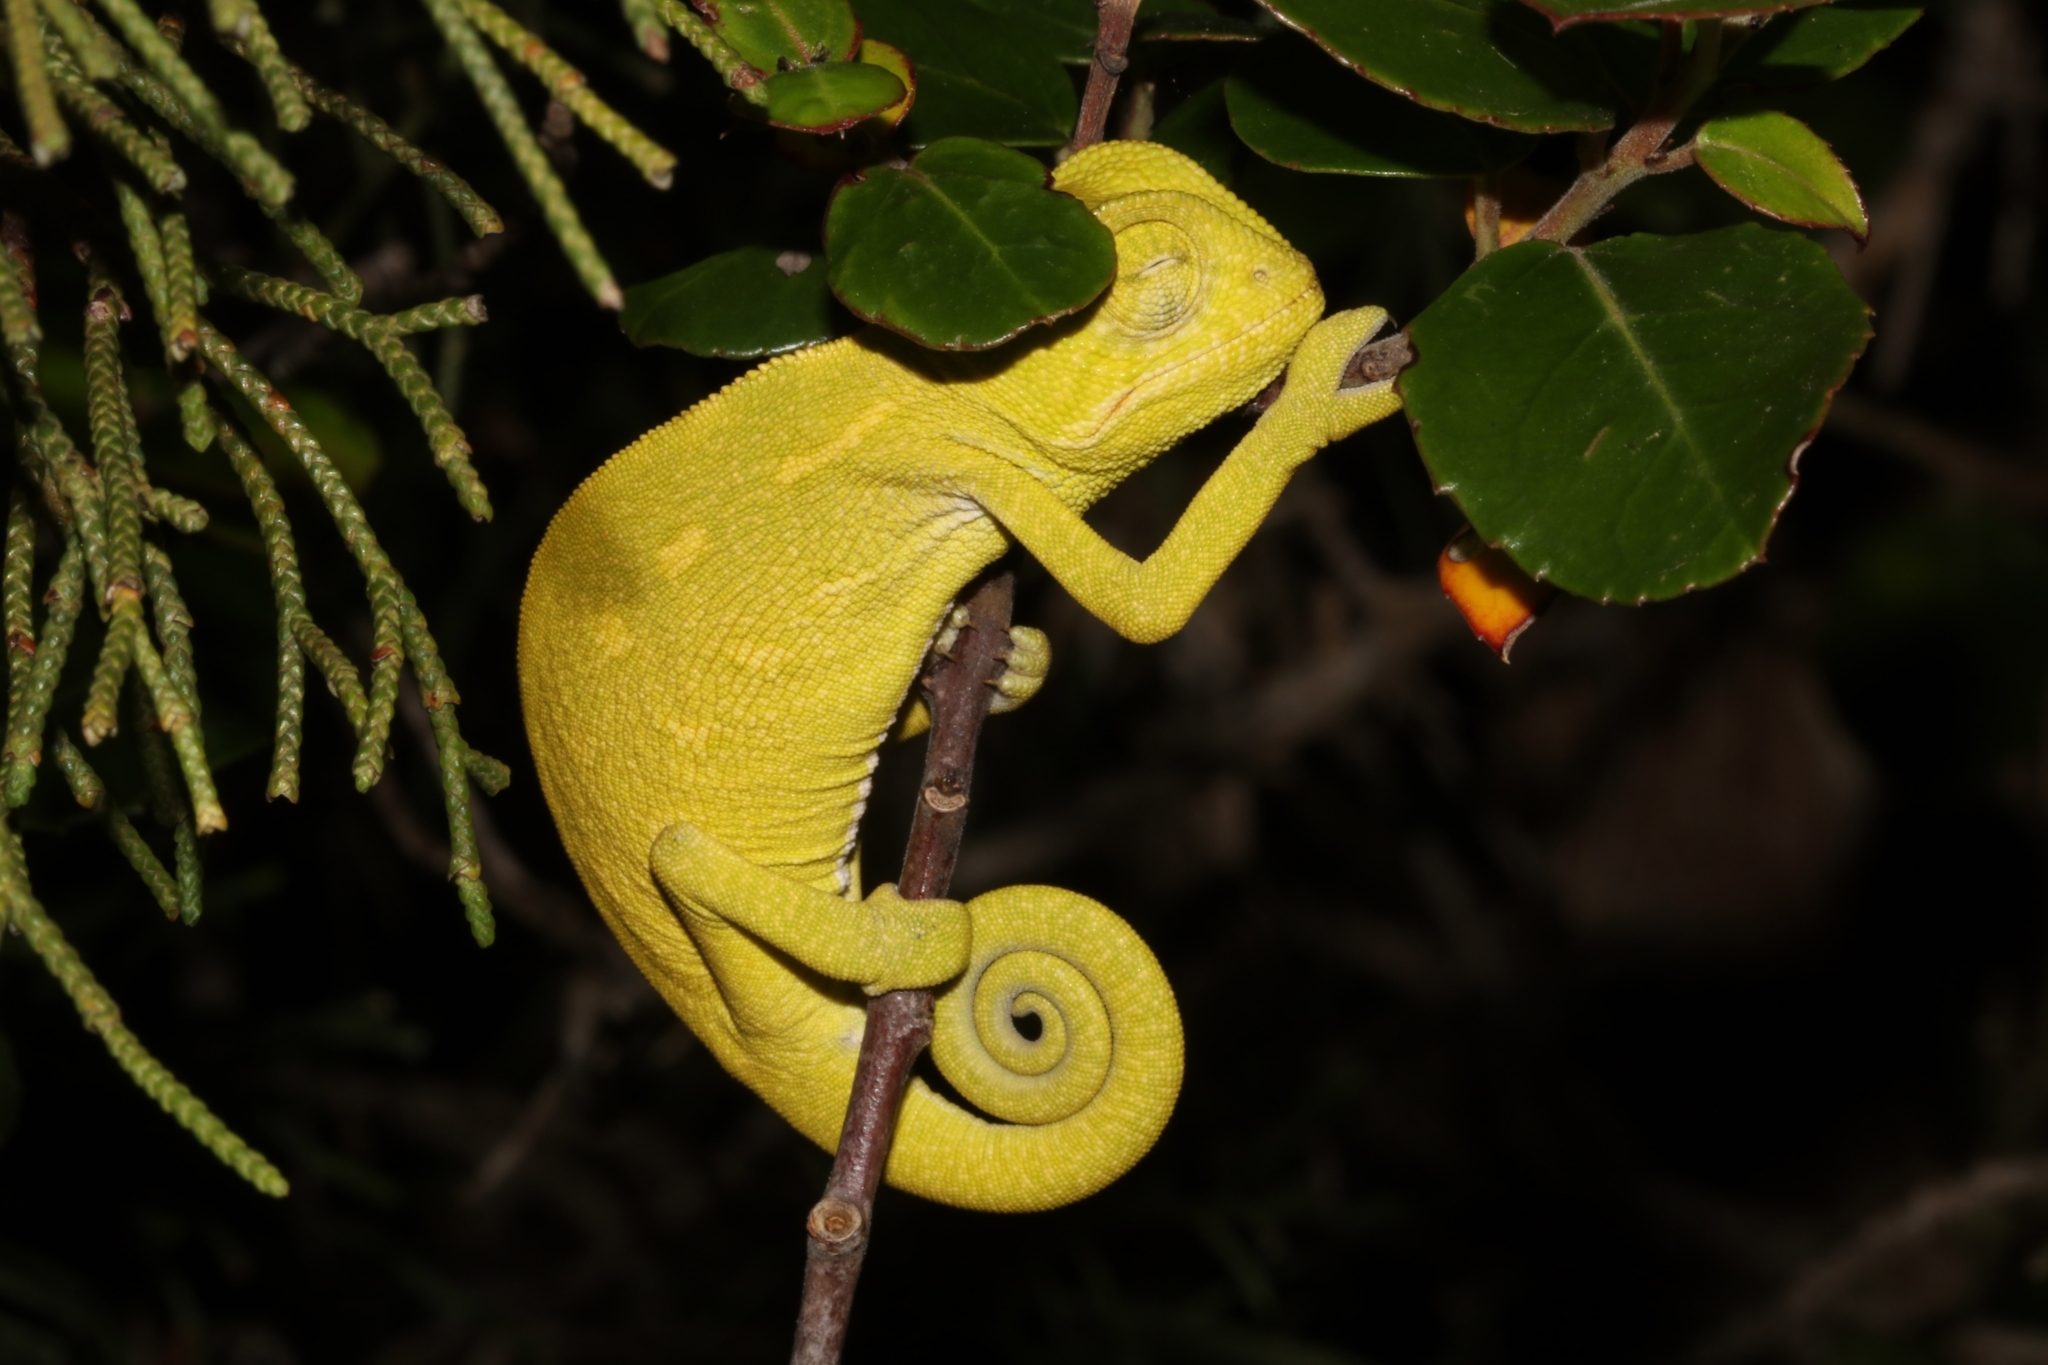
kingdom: Animalia
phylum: Chordata
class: Squamata
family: Chamaeleonidae
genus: Chamaeleo
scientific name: Chamaeleo africanus
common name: African chameleon
